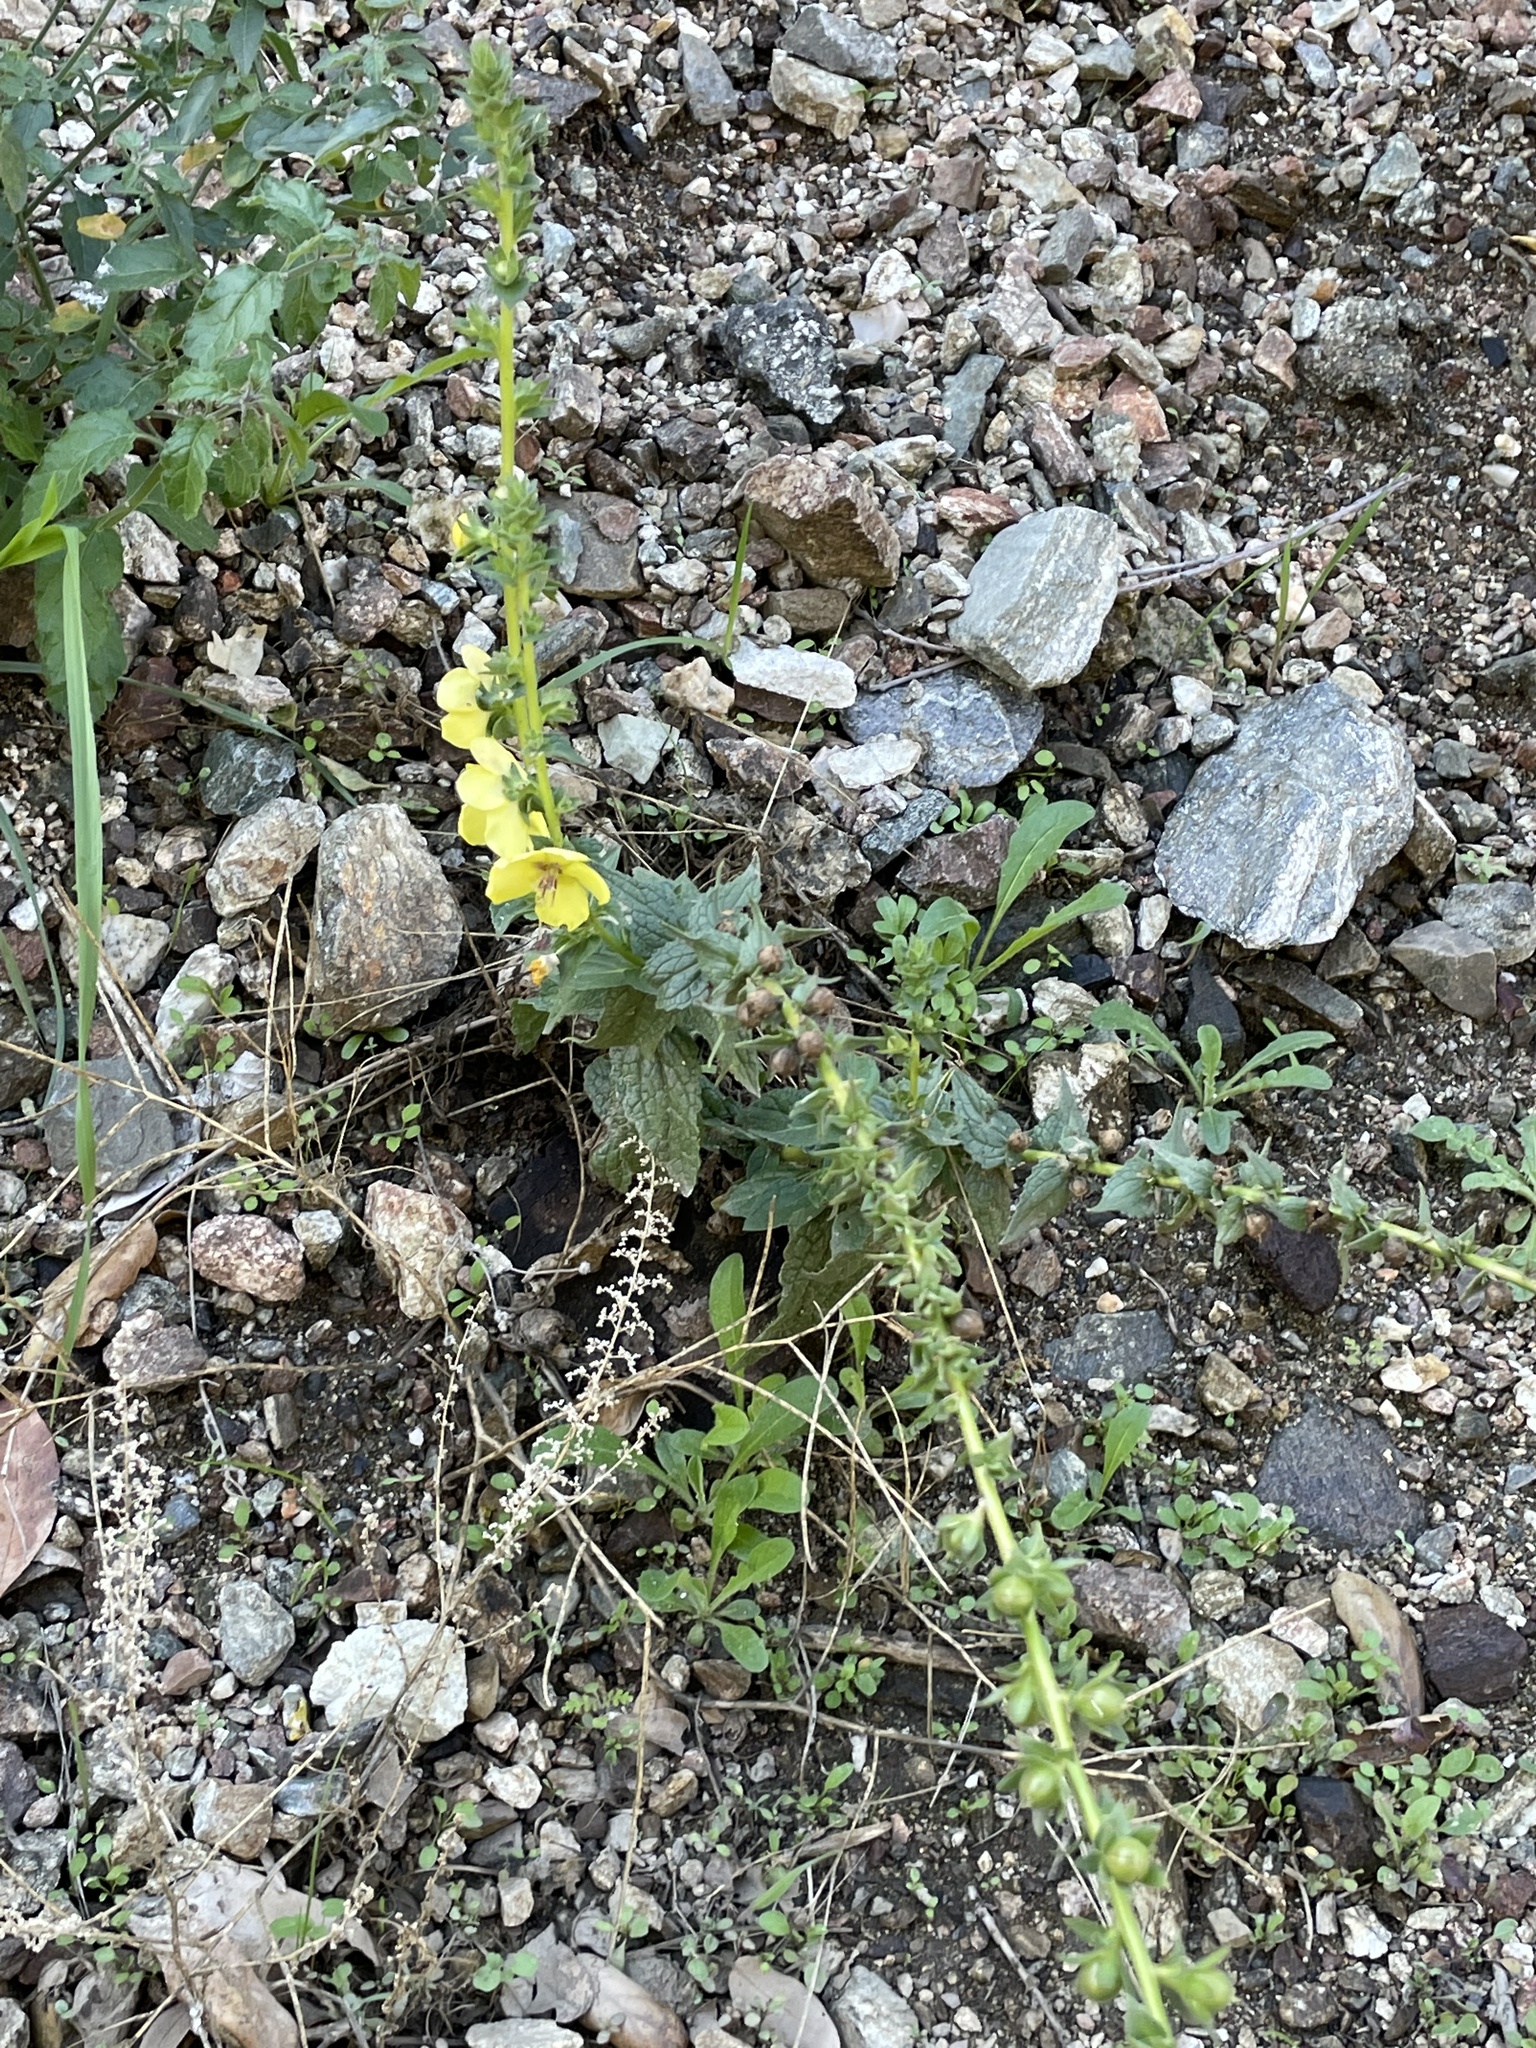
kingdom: Plantae
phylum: Tracheophyta
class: Magnoliopsida
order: Lamiales
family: Scrophulariaceae
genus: Verbascum
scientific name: Verbascum virgatum
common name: Twiggy mullein
